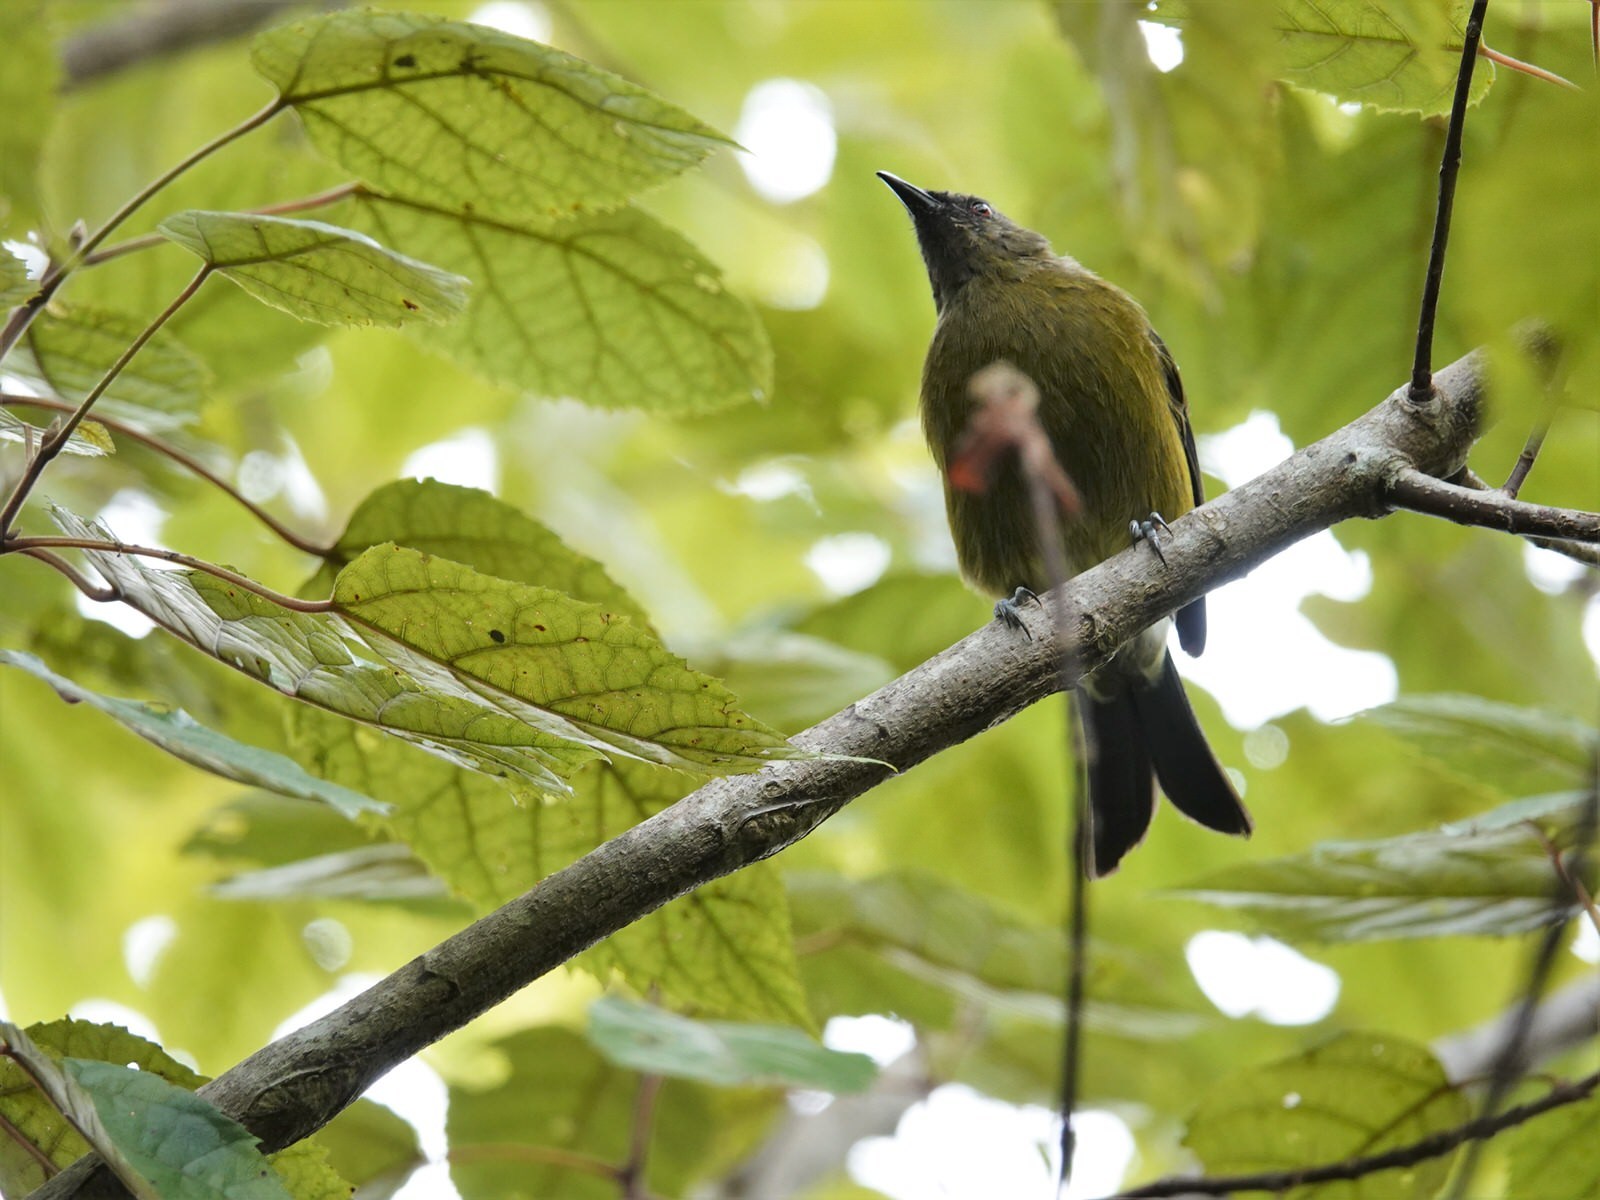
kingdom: Animalia
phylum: Chordata
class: Aves
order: Passeriformes
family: Meliphagidae
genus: Anthornis
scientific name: Anthornis melanura
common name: New zealand bellbird
